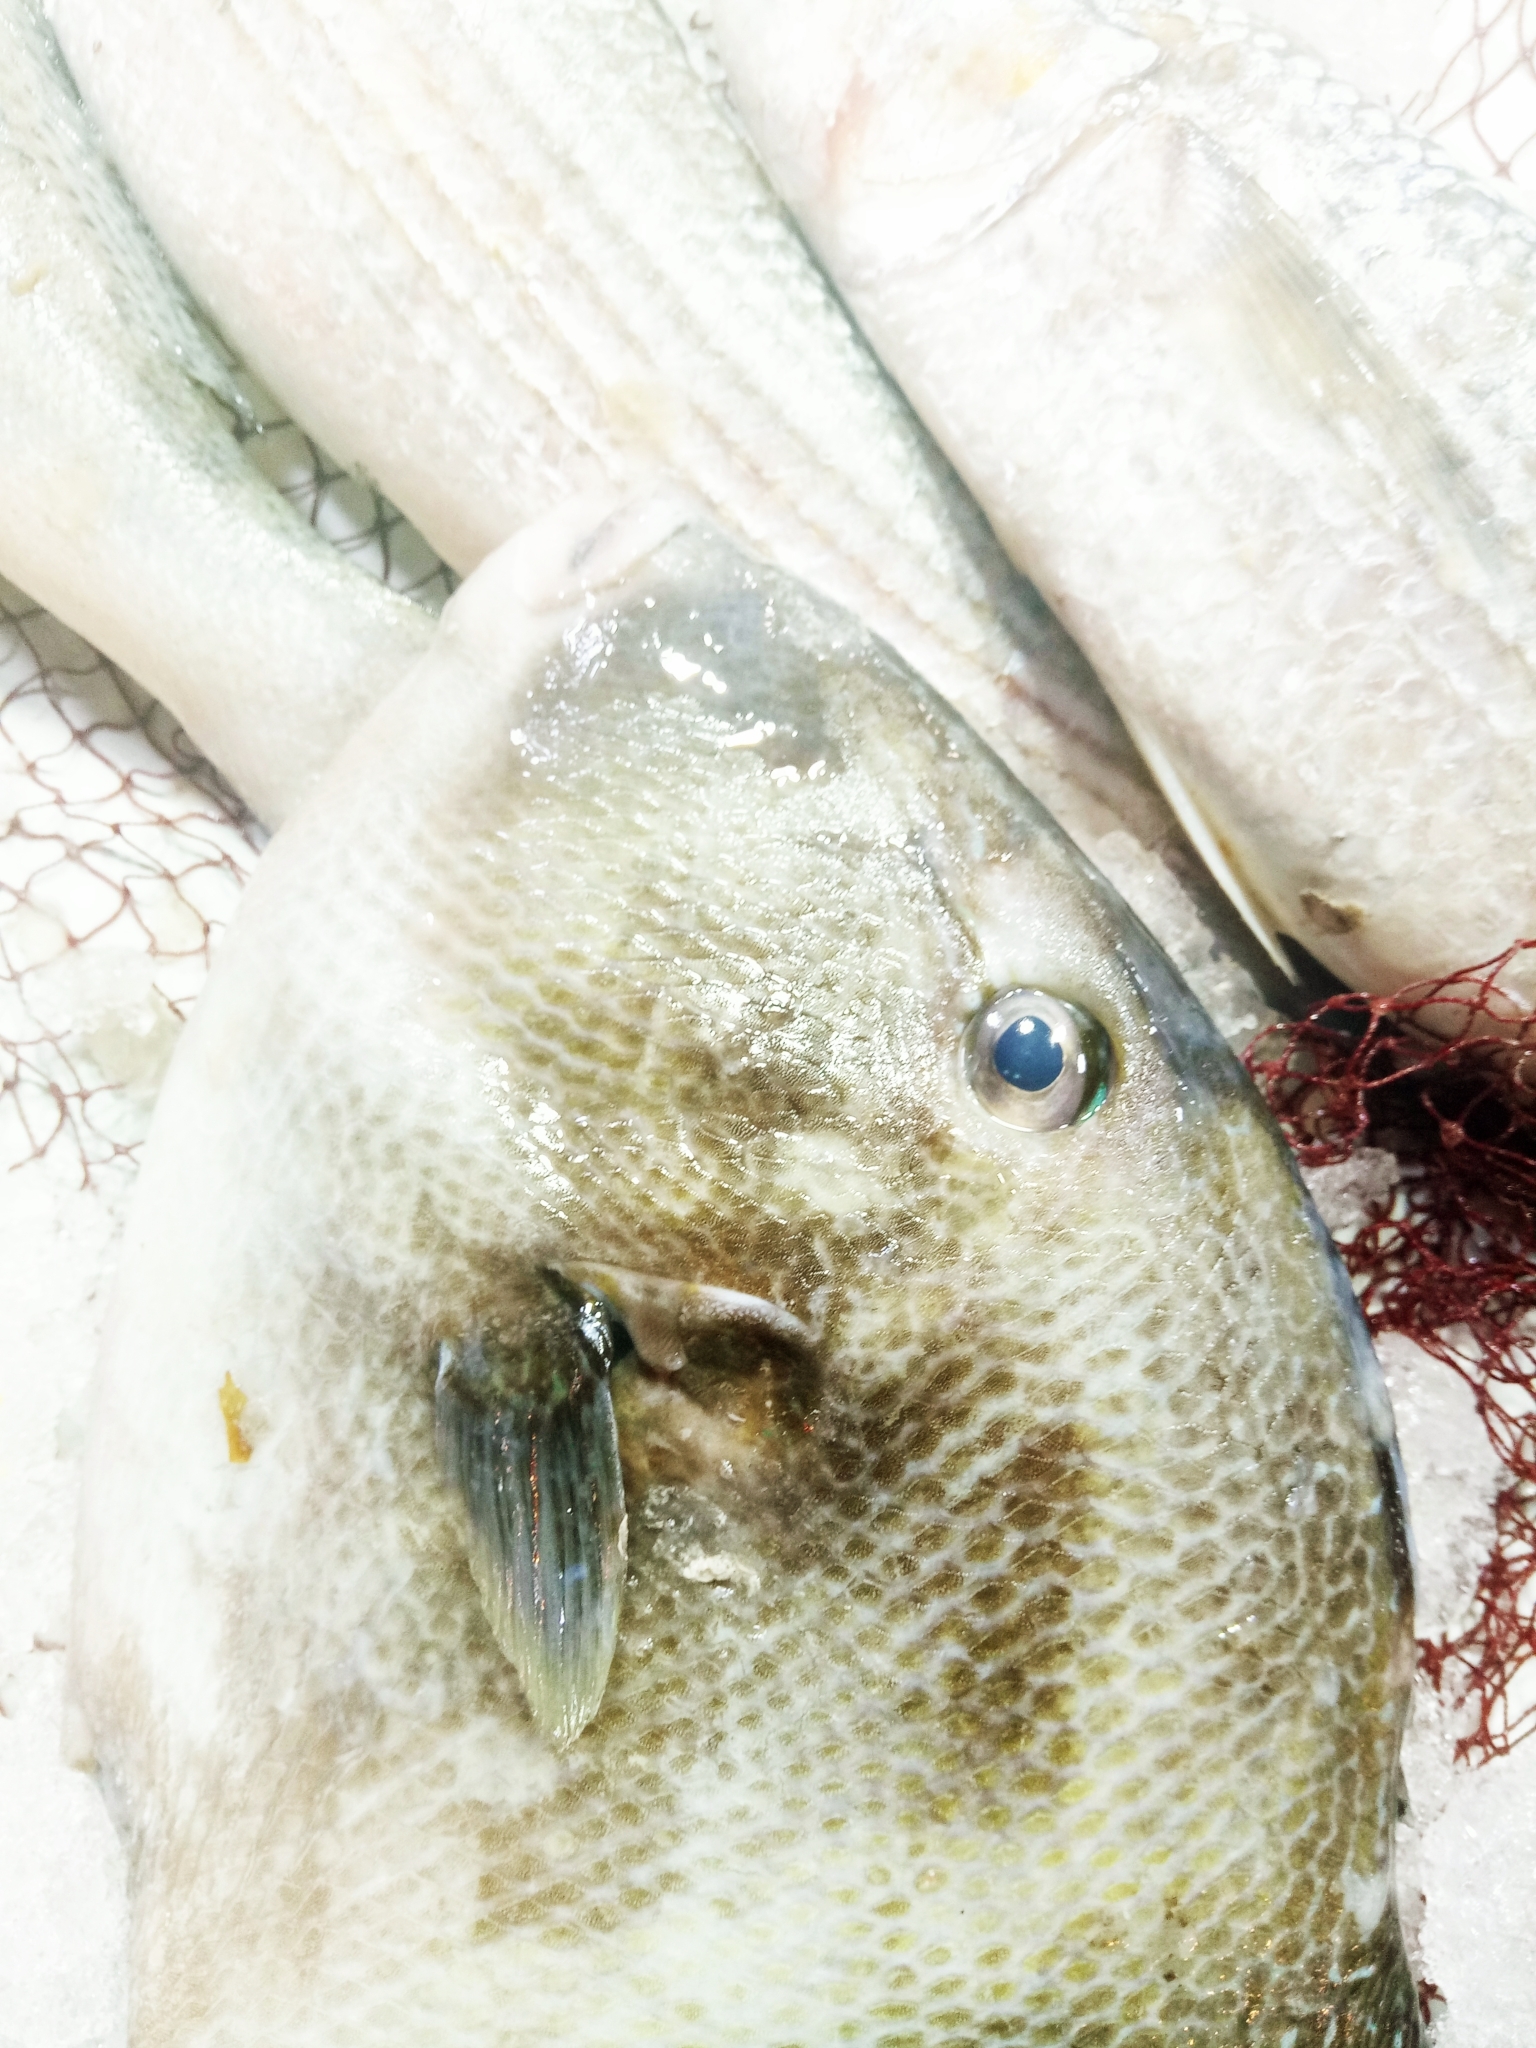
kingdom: Animalia
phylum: Chordata
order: Tetraodontiformes
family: Balistidae
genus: Balistes
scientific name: Balistes capriscus
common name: Grey triggerfish
